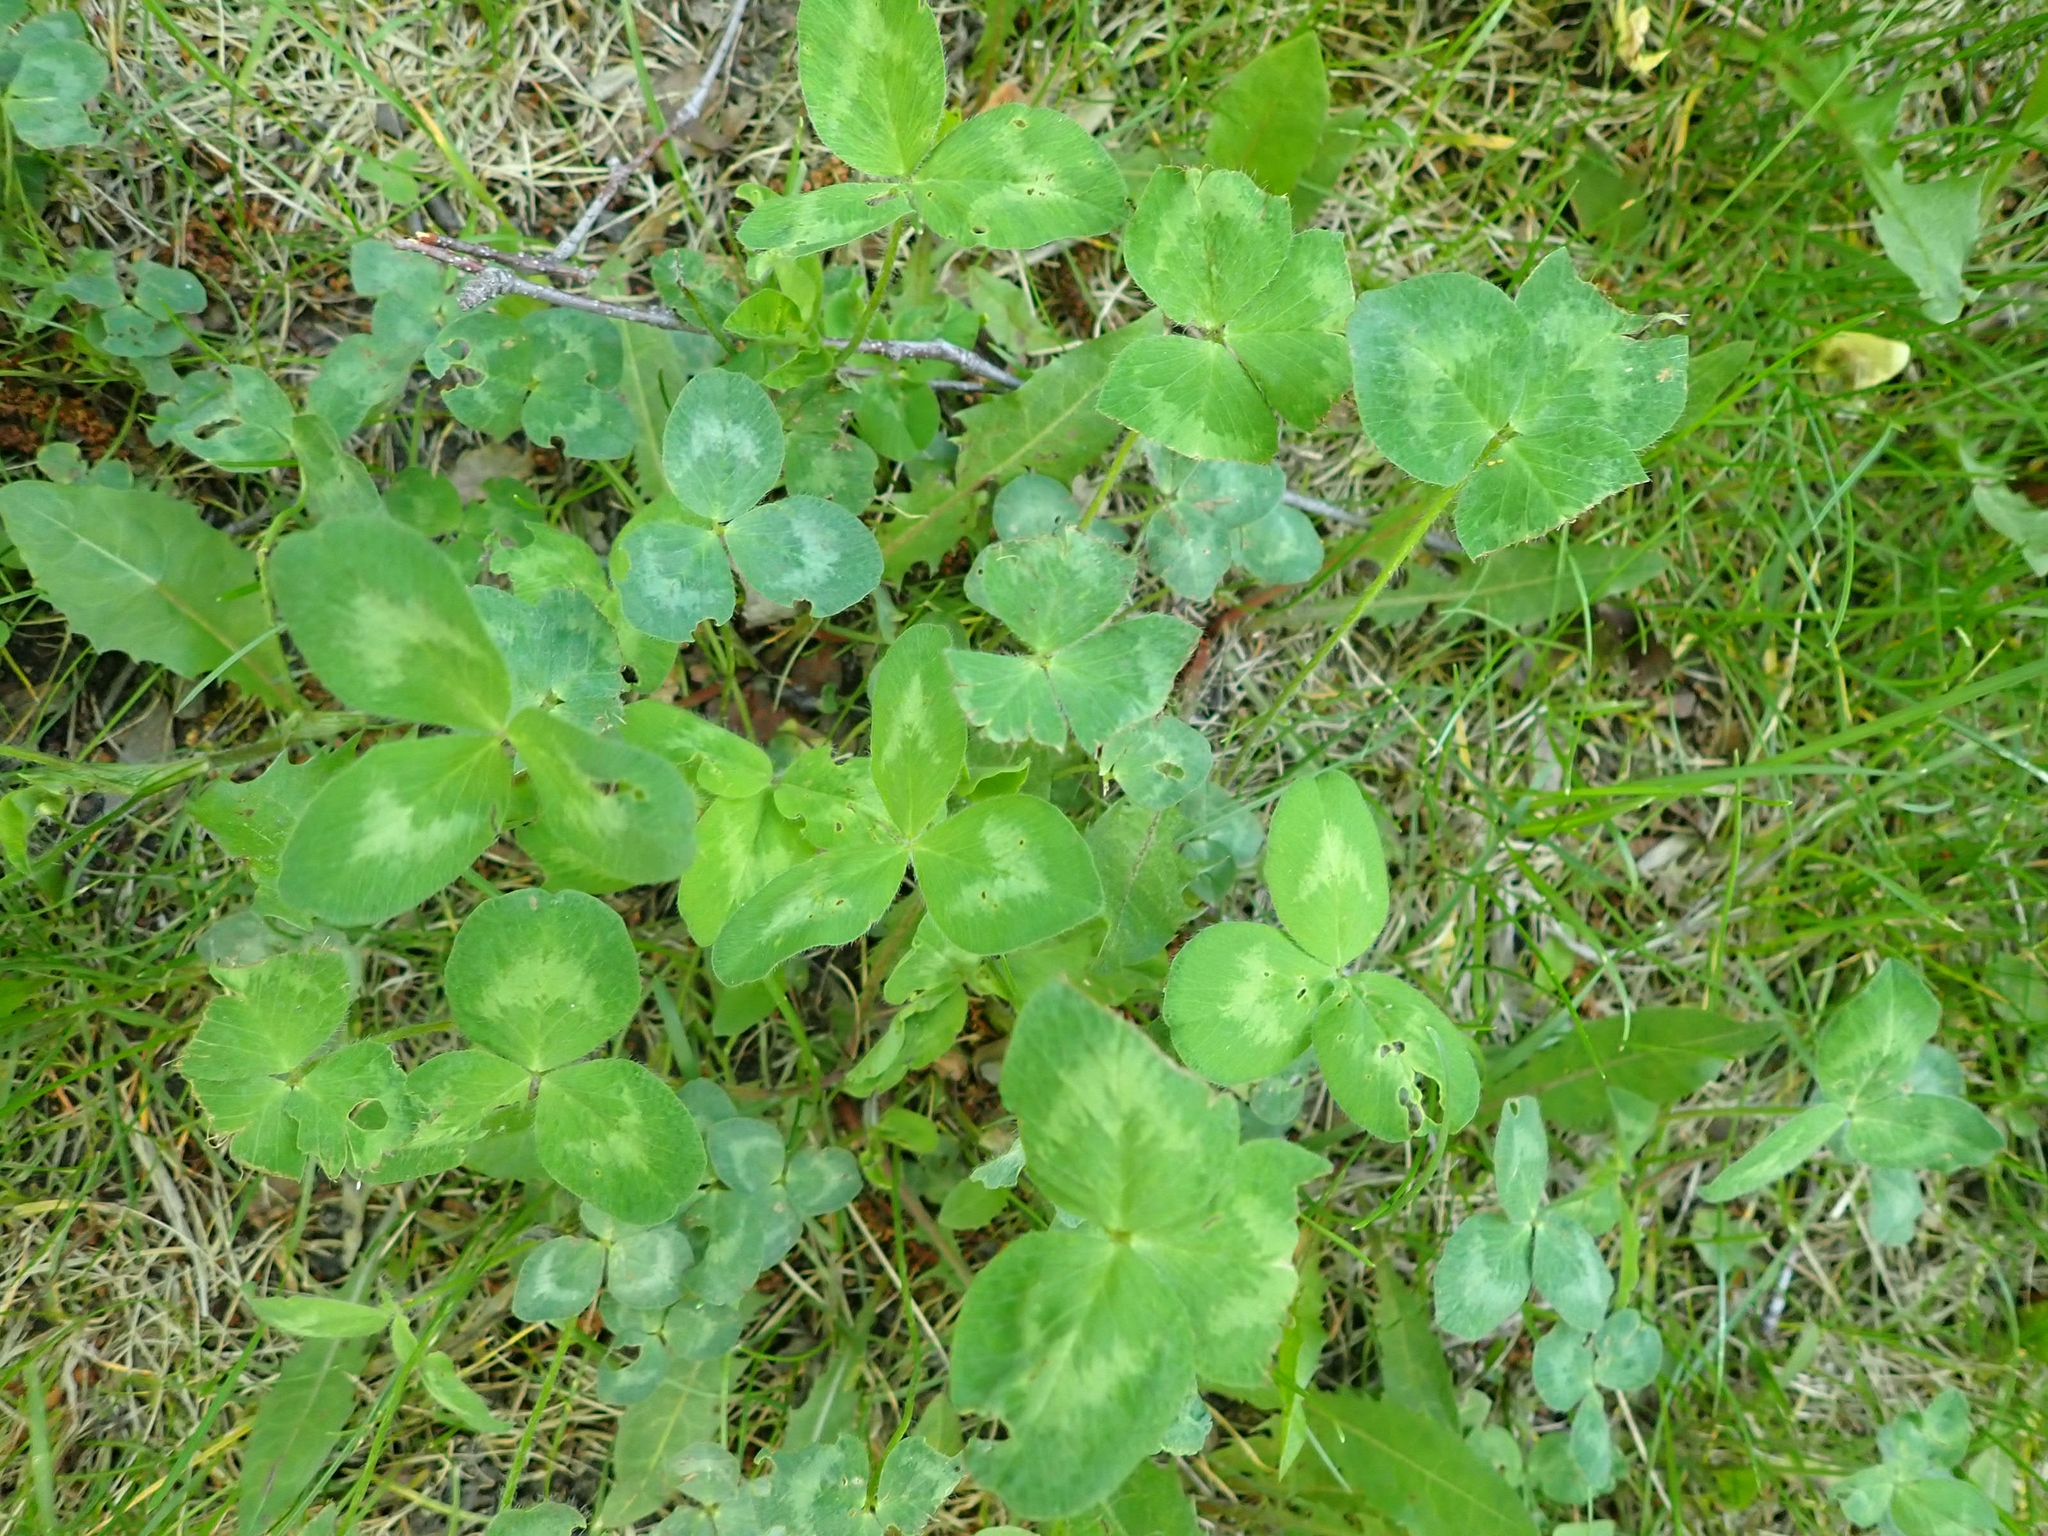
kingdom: Plantae
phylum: Tracheophyta
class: Magnoliopsida
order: Fabales
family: Fabaceae
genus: Trifolium
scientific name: Trifolium pratense
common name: Red clover
